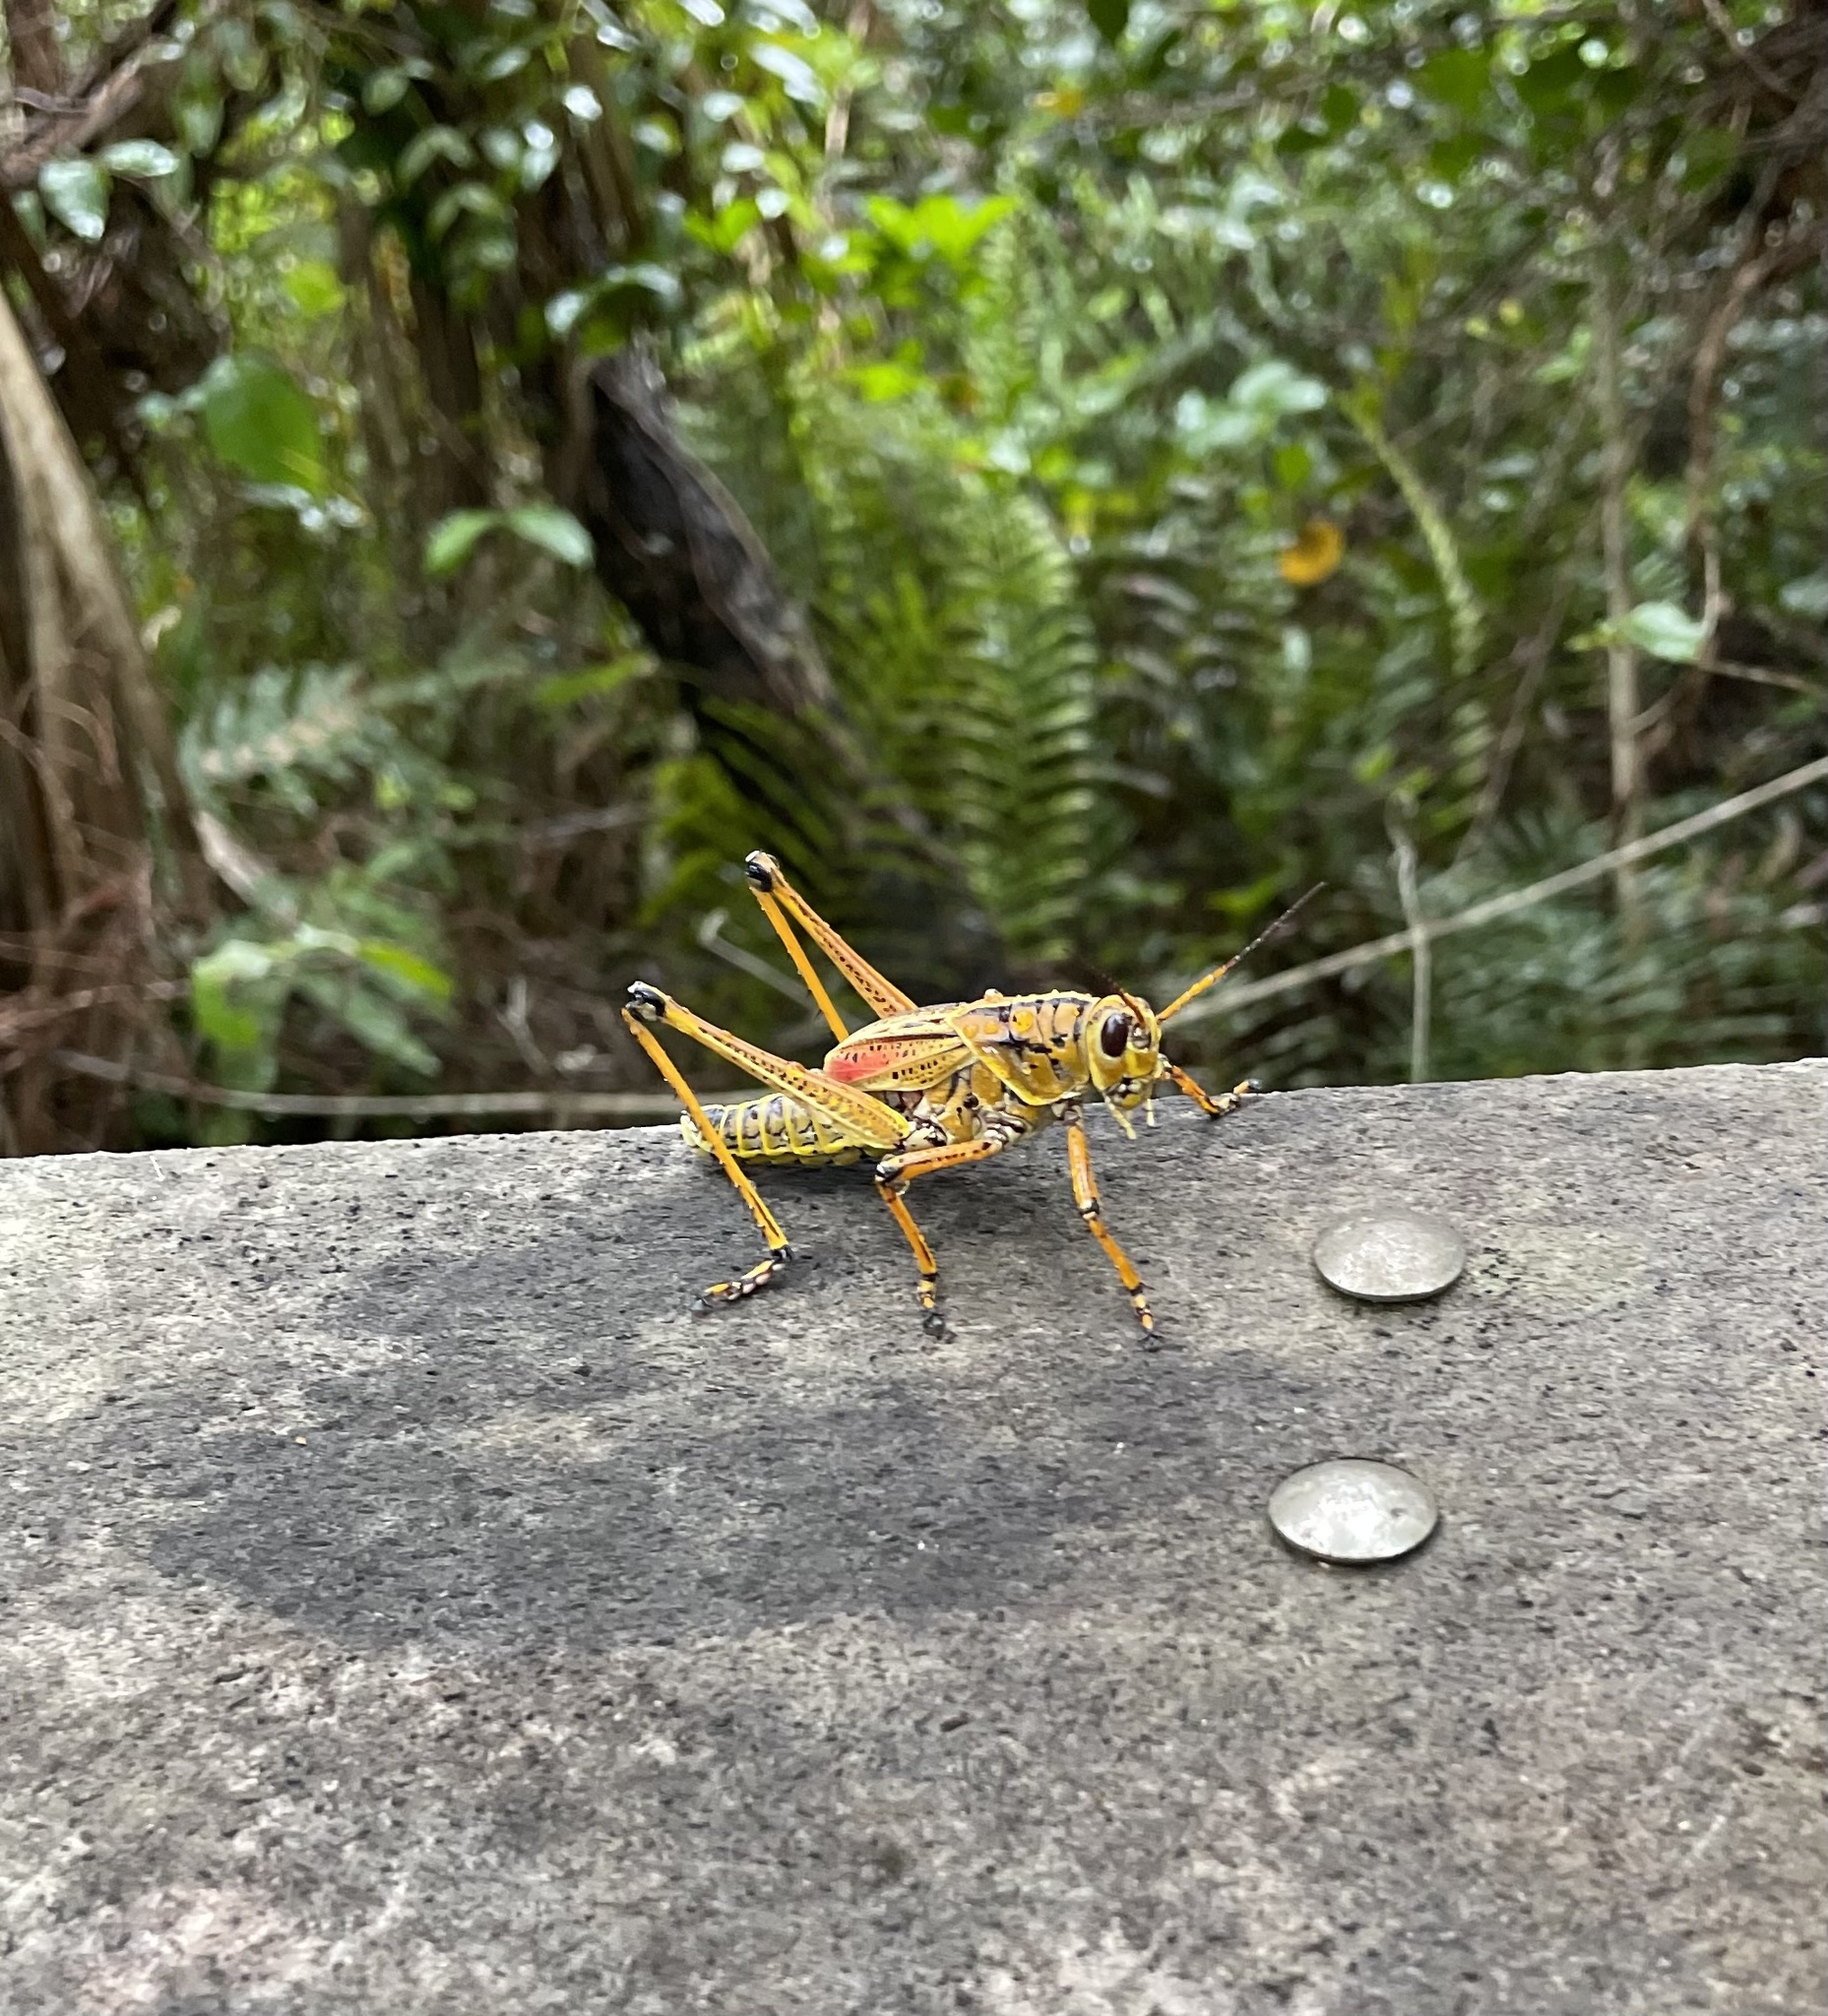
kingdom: Animalia
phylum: Arthropoda
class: Insecta
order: Orthoptera
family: Romaleidae
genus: Romalea
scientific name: Romalea microptera
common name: Eastern lubber grasshopper
